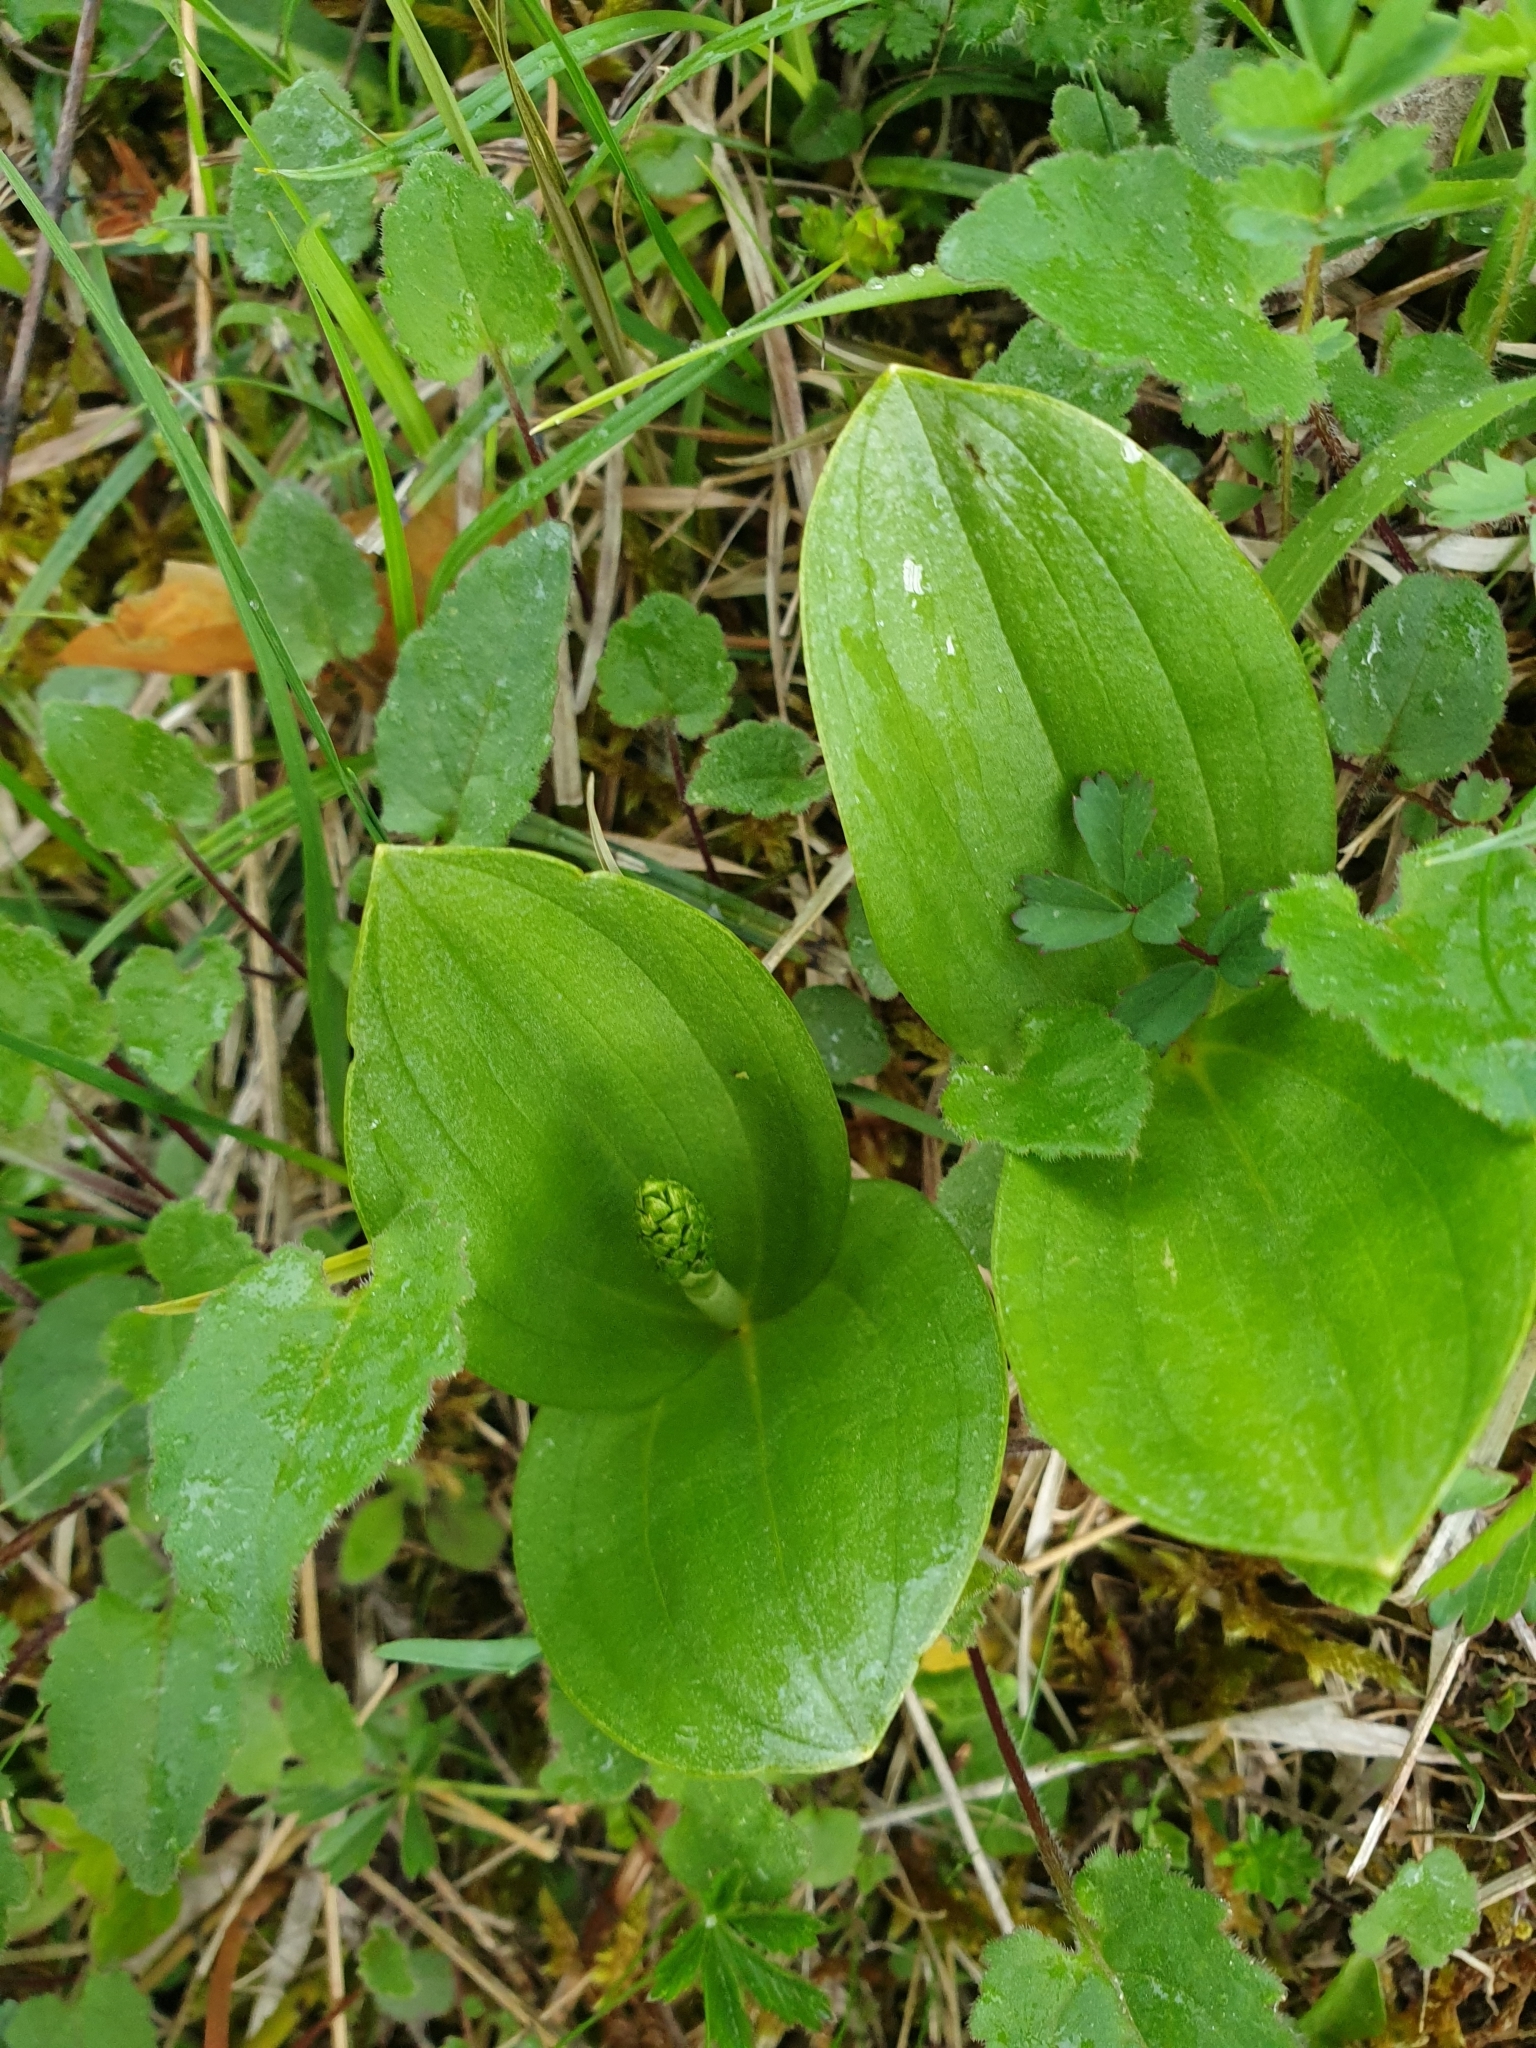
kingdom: Plantae
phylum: Tracheophyta
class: Liliopsida
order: Asparagales
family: Orchidaceae
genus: Neottia
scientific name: Neottia ovata
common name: Common twayblade
